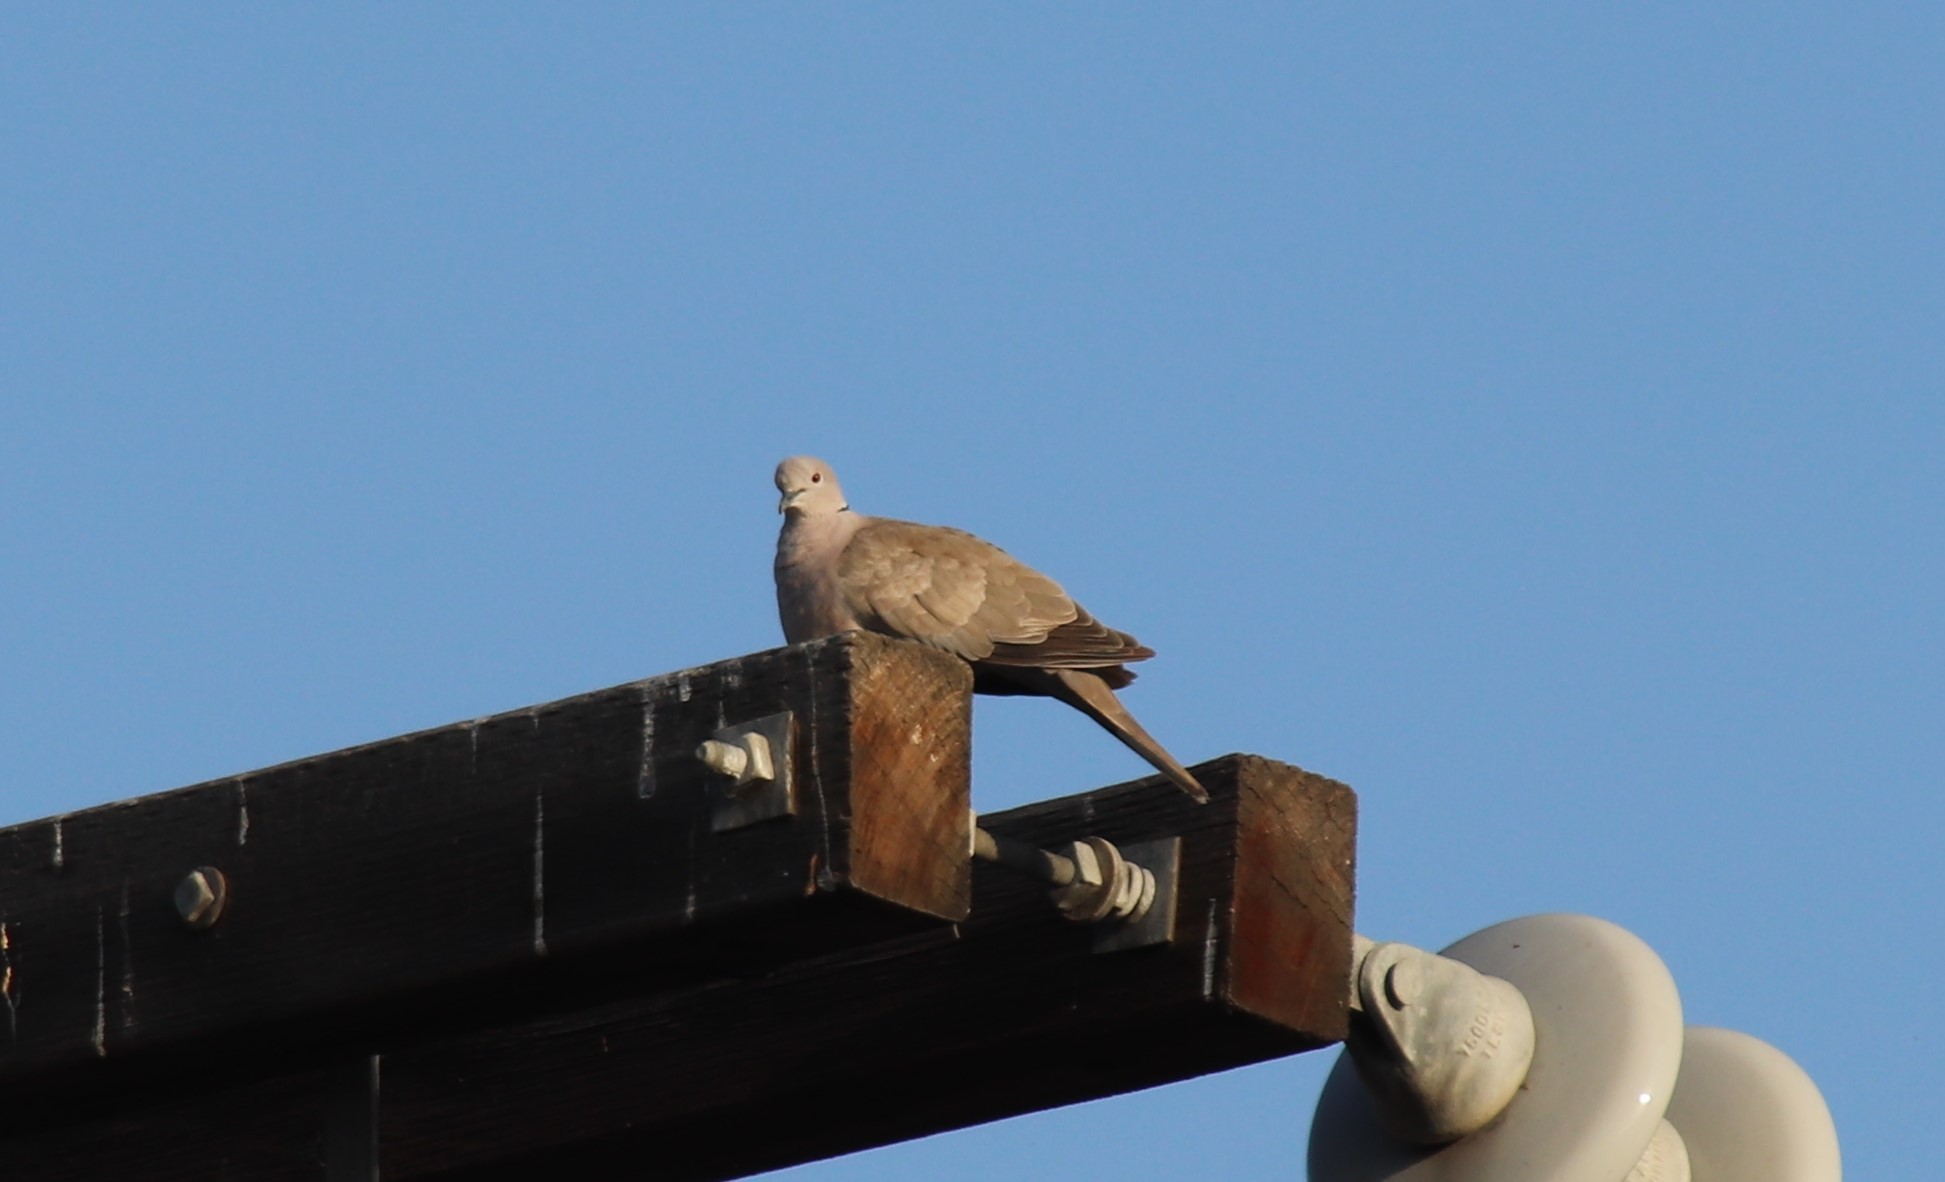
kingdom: Animalia
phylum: Chordata
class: Aves
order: Columbiformes
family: Columbidae
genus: Streptopelia
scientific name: Streptopelia decaocto
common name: Eurasian collared dove
